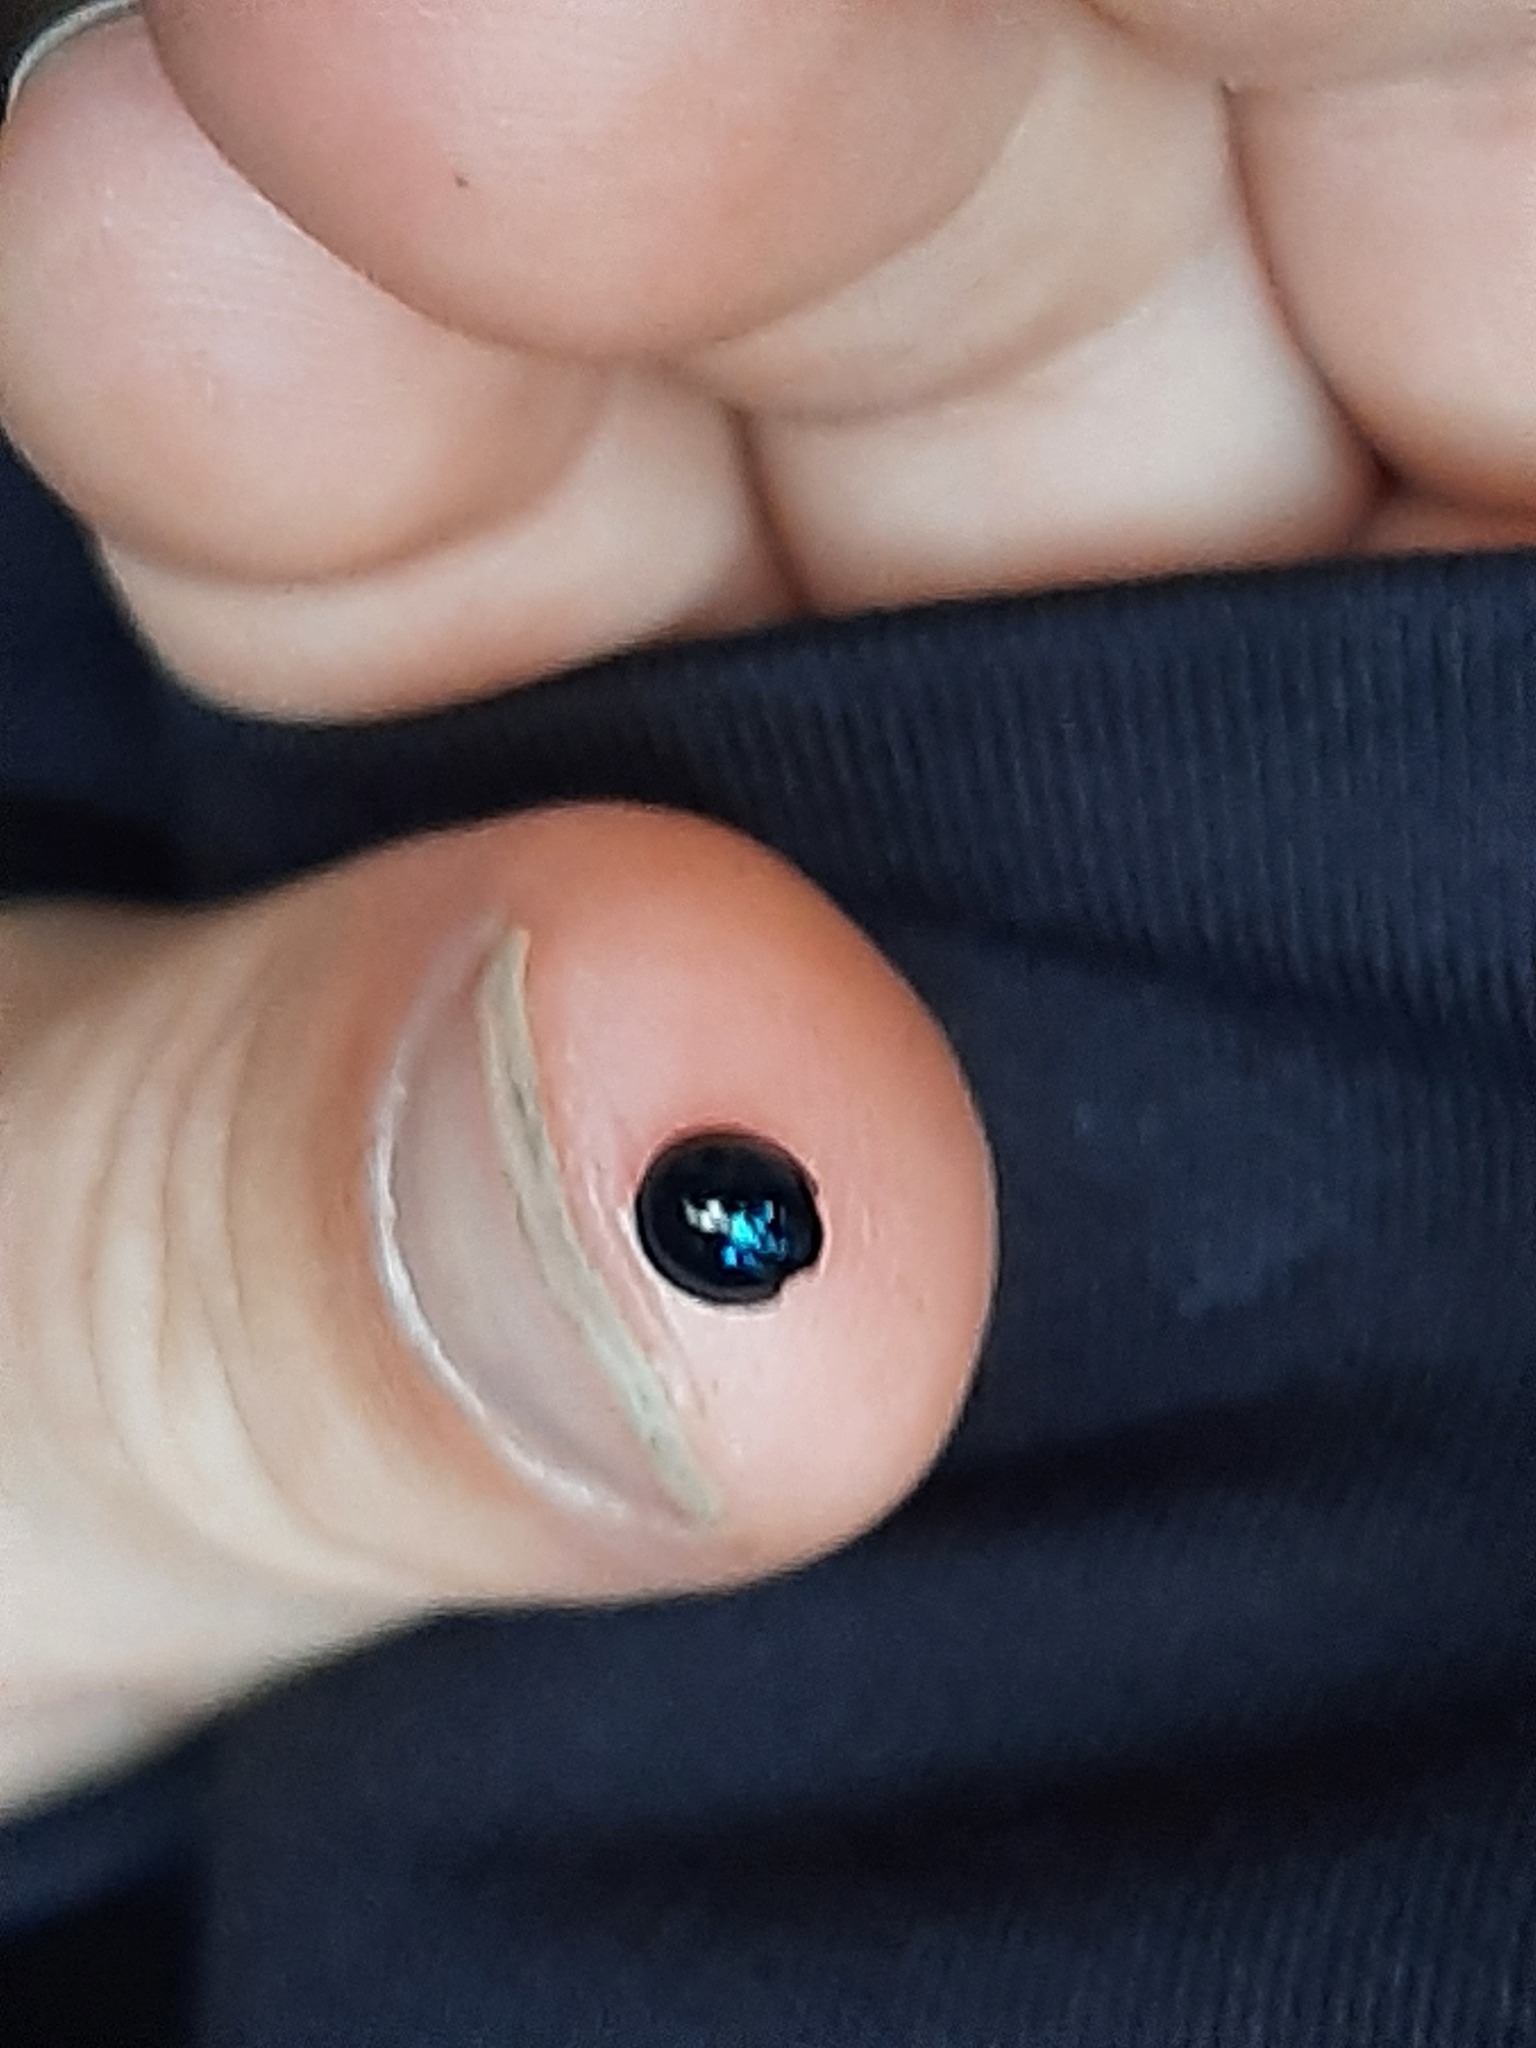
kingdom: Animalia
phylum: Arthropoda
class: Insecta
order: Coleoptera
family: Coccinellidae
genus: Halmus
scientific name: Halmus chalybeus
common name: Steel blue ladybird beetle
